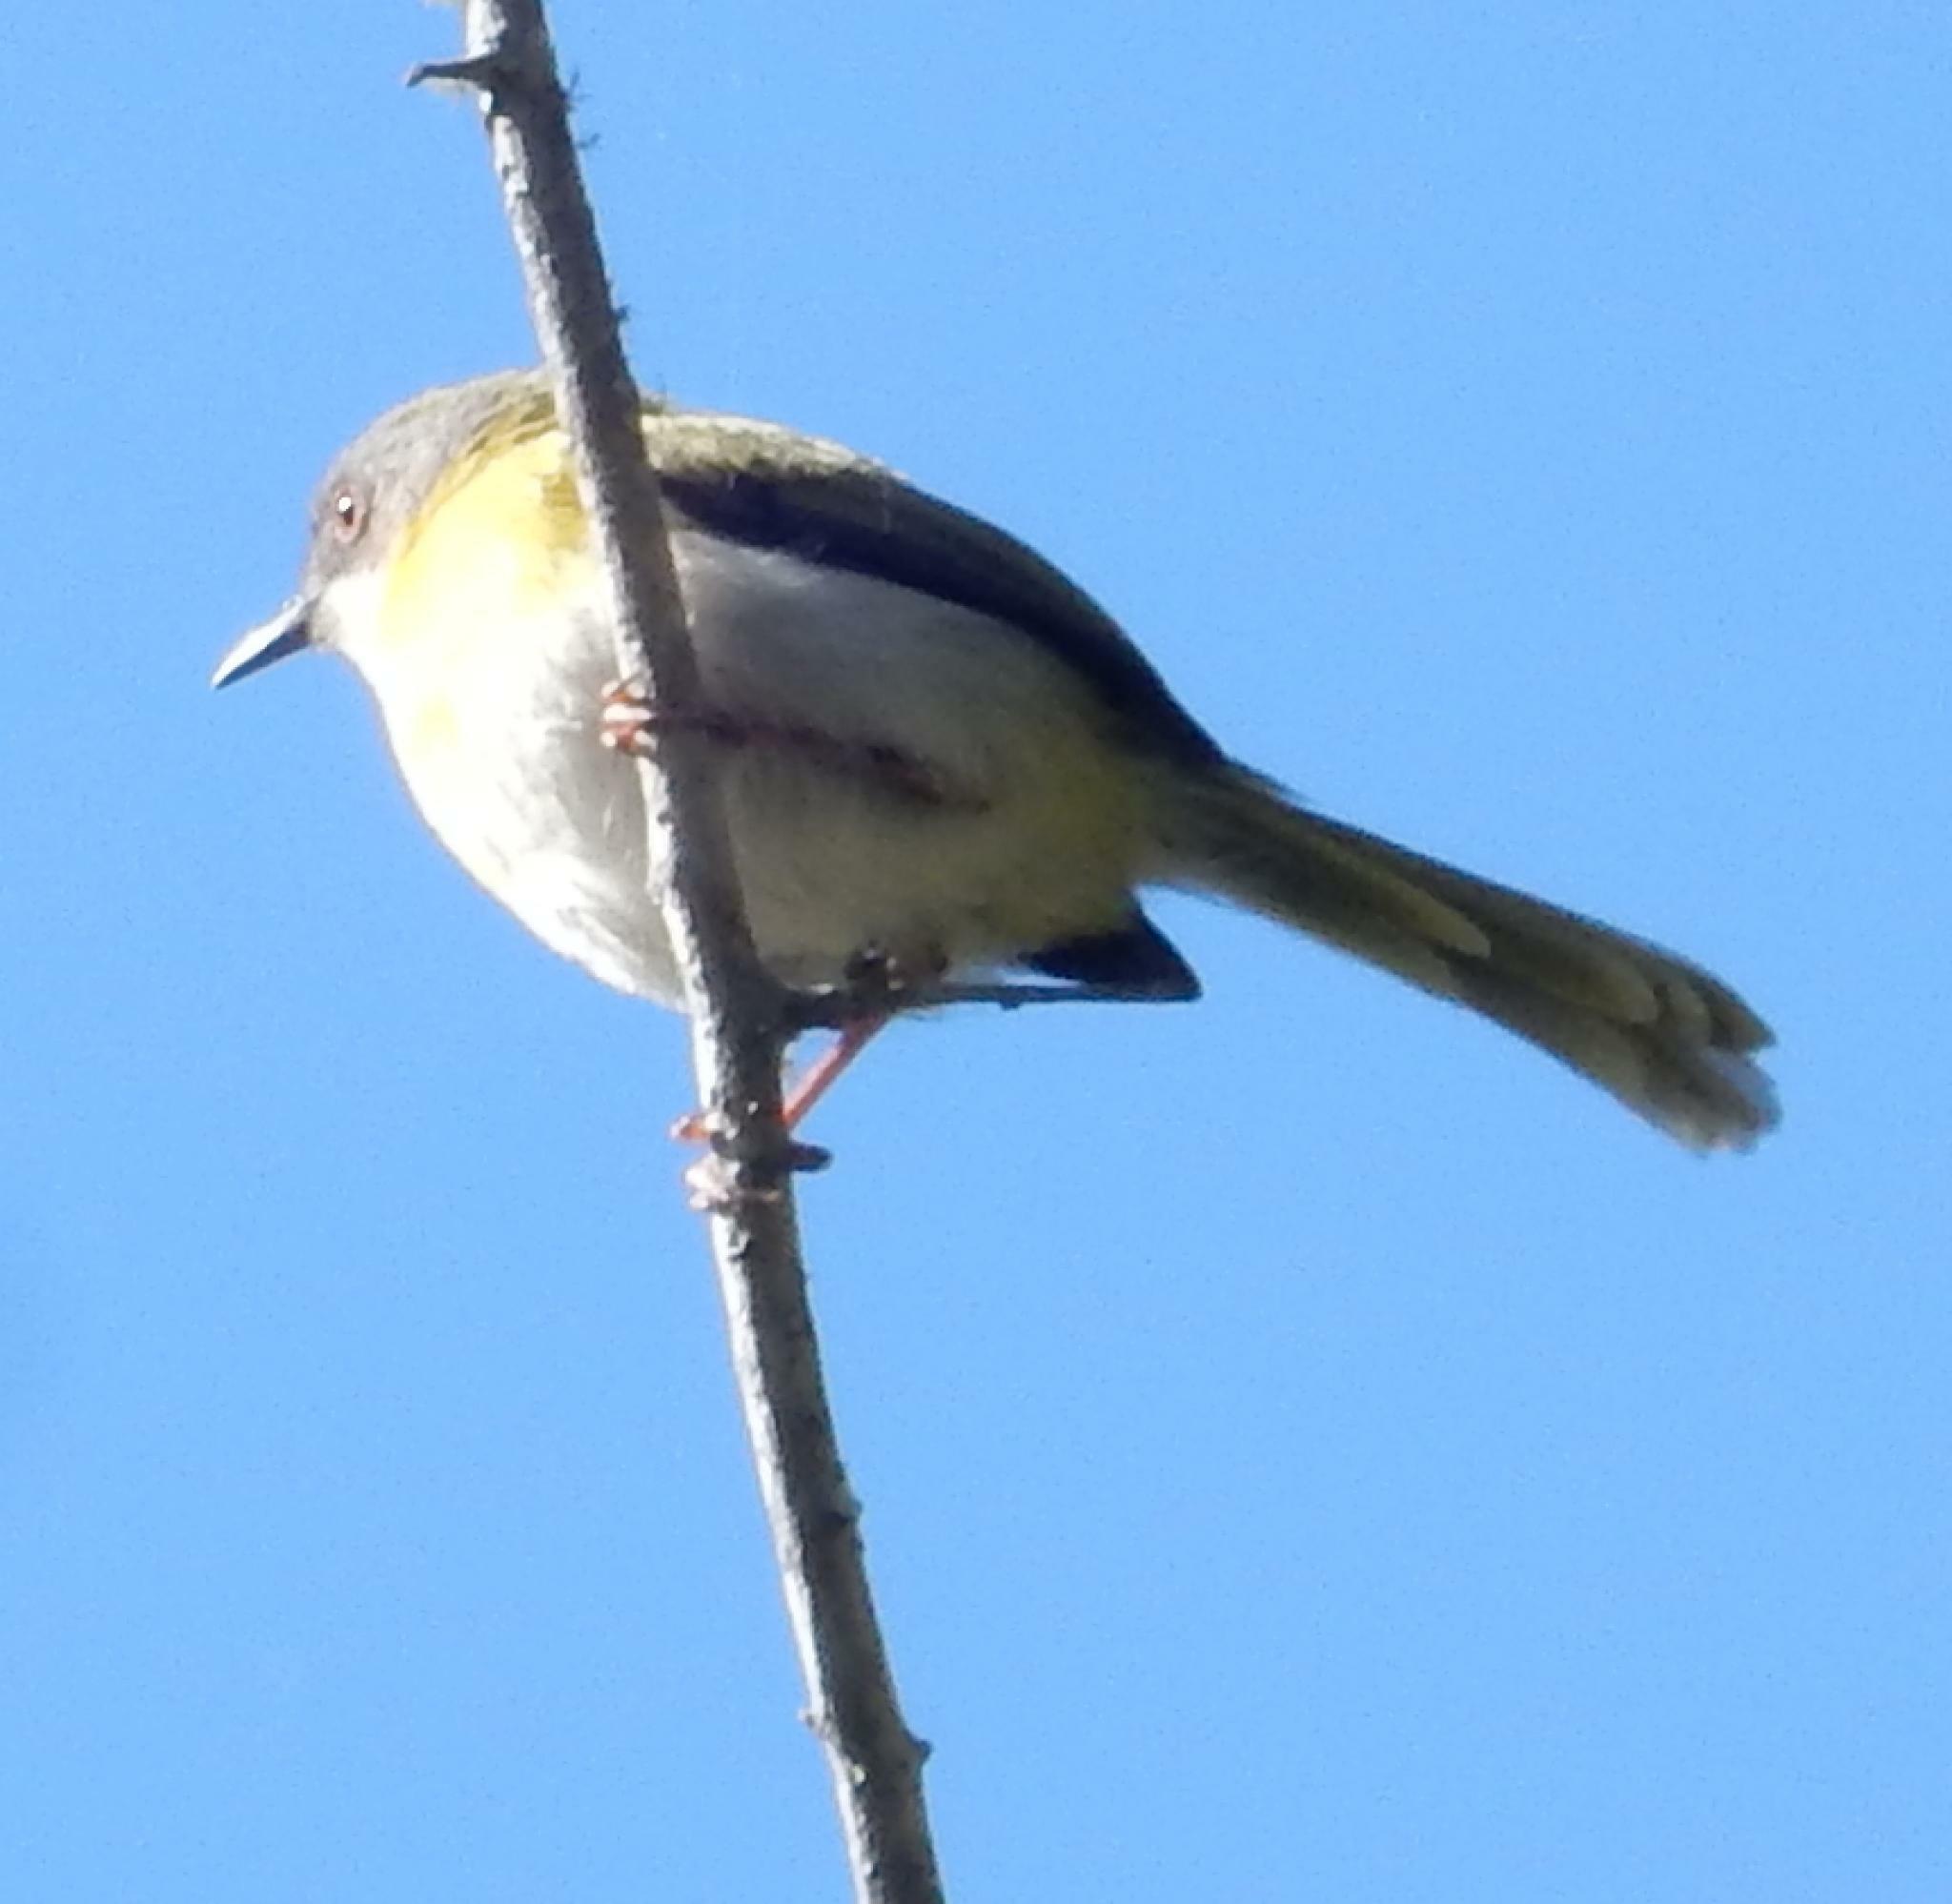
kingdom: Animalia
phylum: Chordata
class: Aves
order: Passeriformes
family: Cisticolidae
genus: Apalis
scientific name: Apalis flavida
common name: Yellow-breasted apalis
